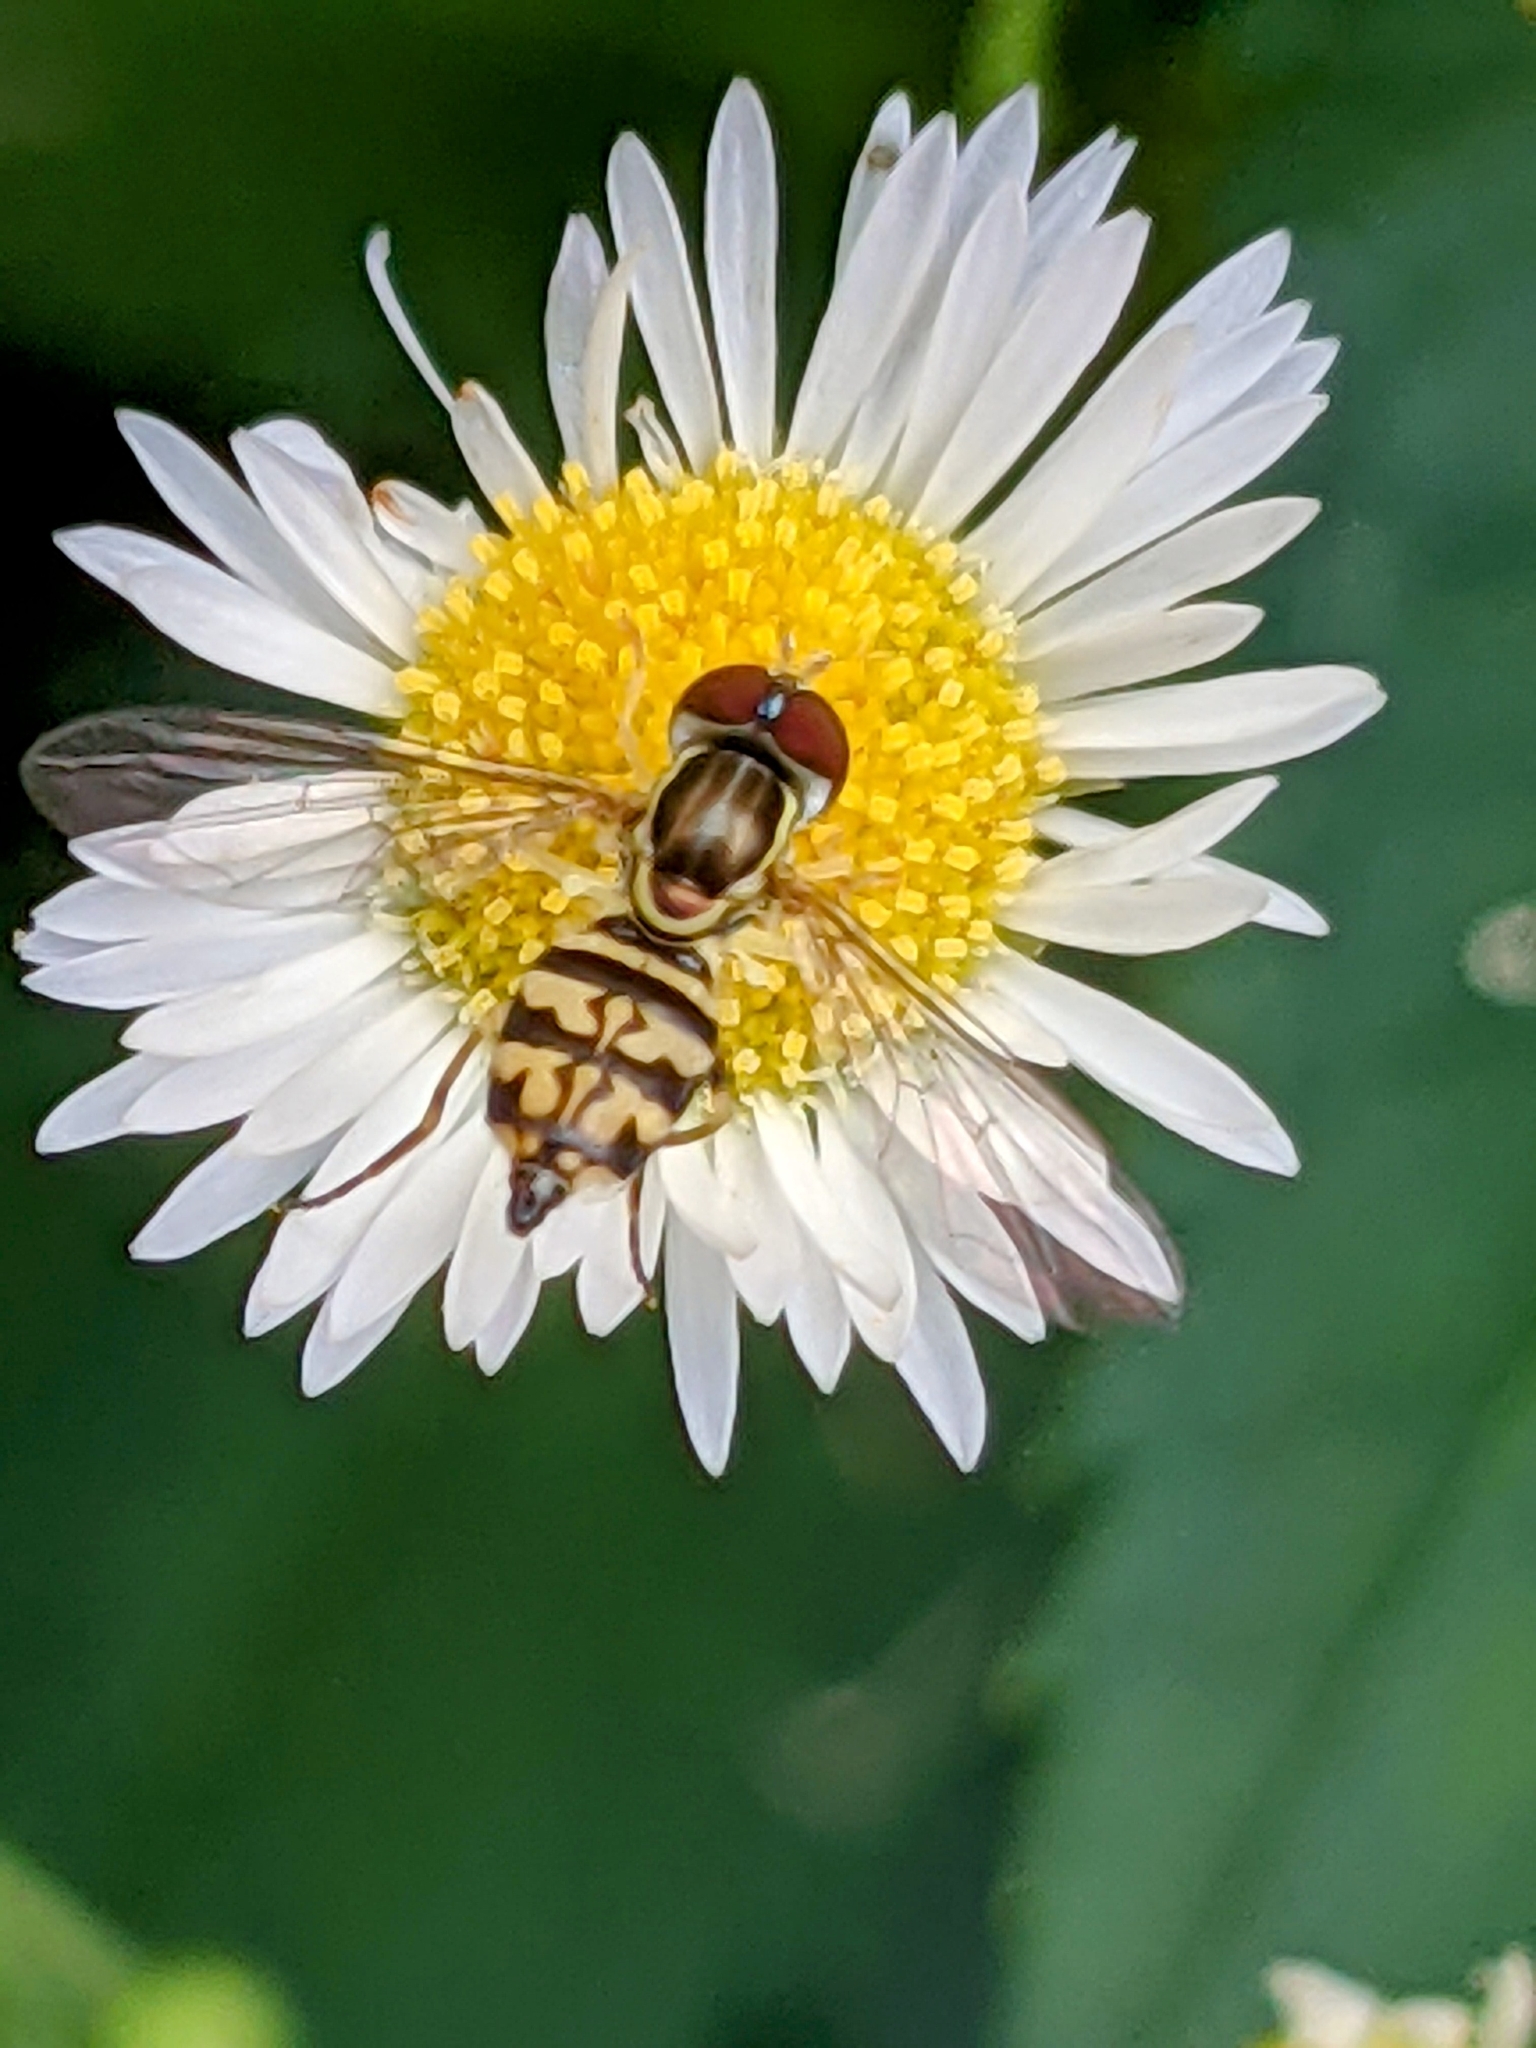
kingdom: Animalia
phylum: Arthropoda
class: Insecta
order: Diptera
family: Syrphidae
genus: Toxomerus
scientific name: Toxomerus geminatus
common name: Eastern calligrapher
